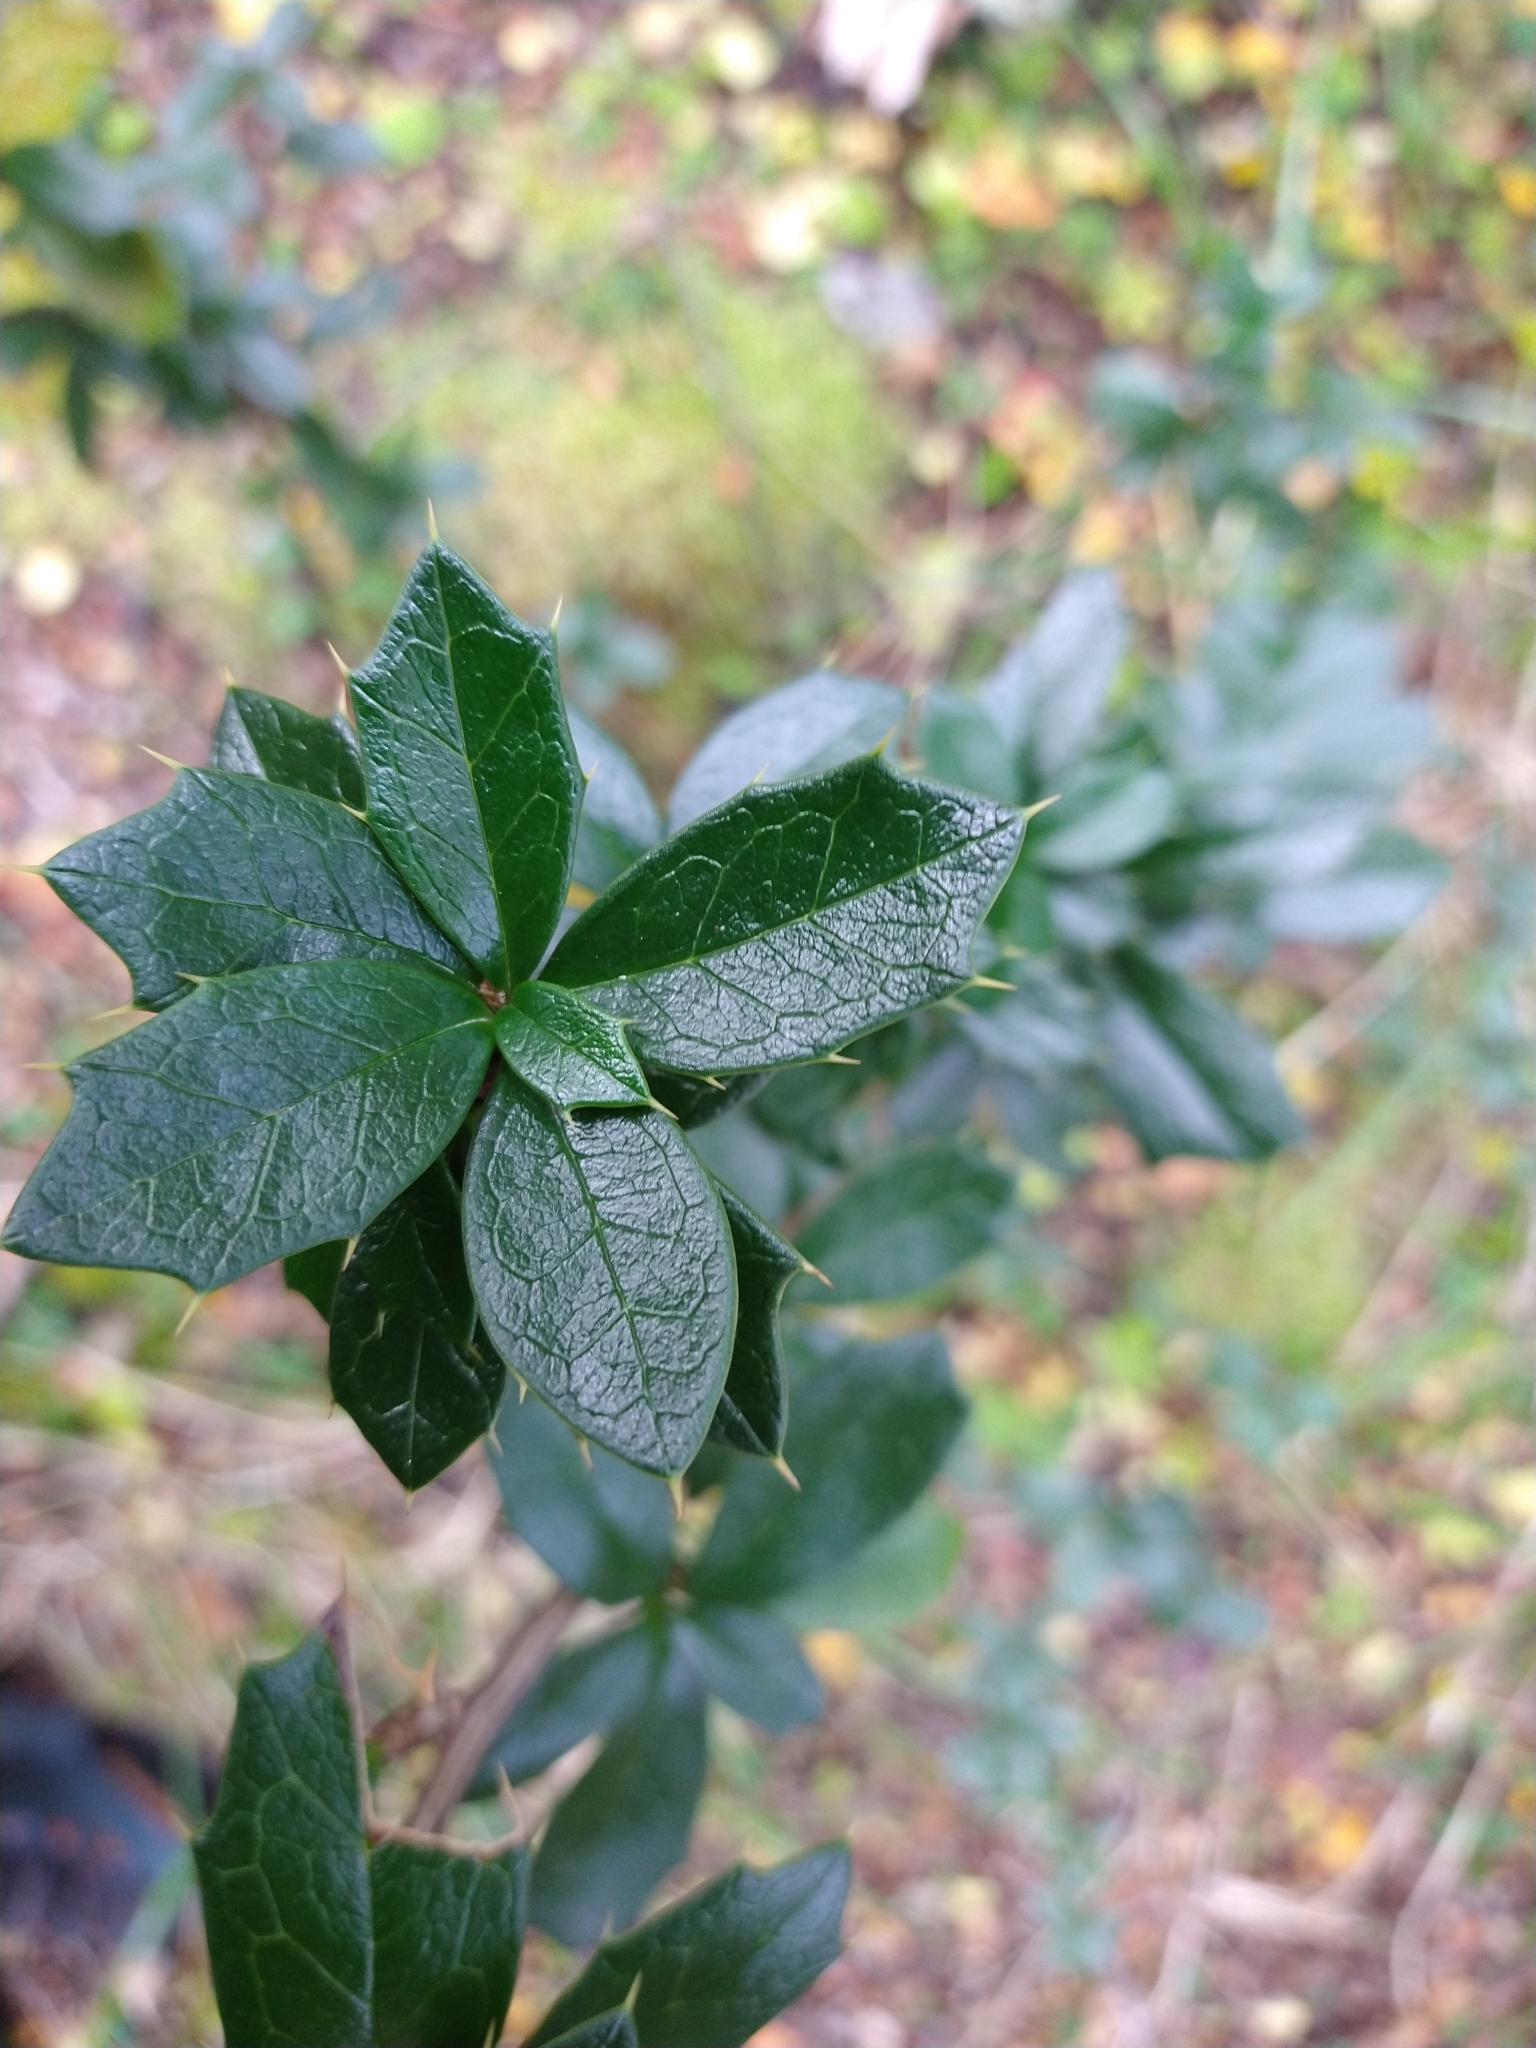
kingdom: Plantae
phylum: Tracheophyta
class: Magnoliopsida
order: Ranunculales
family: Berberidaceae
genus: Berberis
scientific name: Berberis ilicifolia
